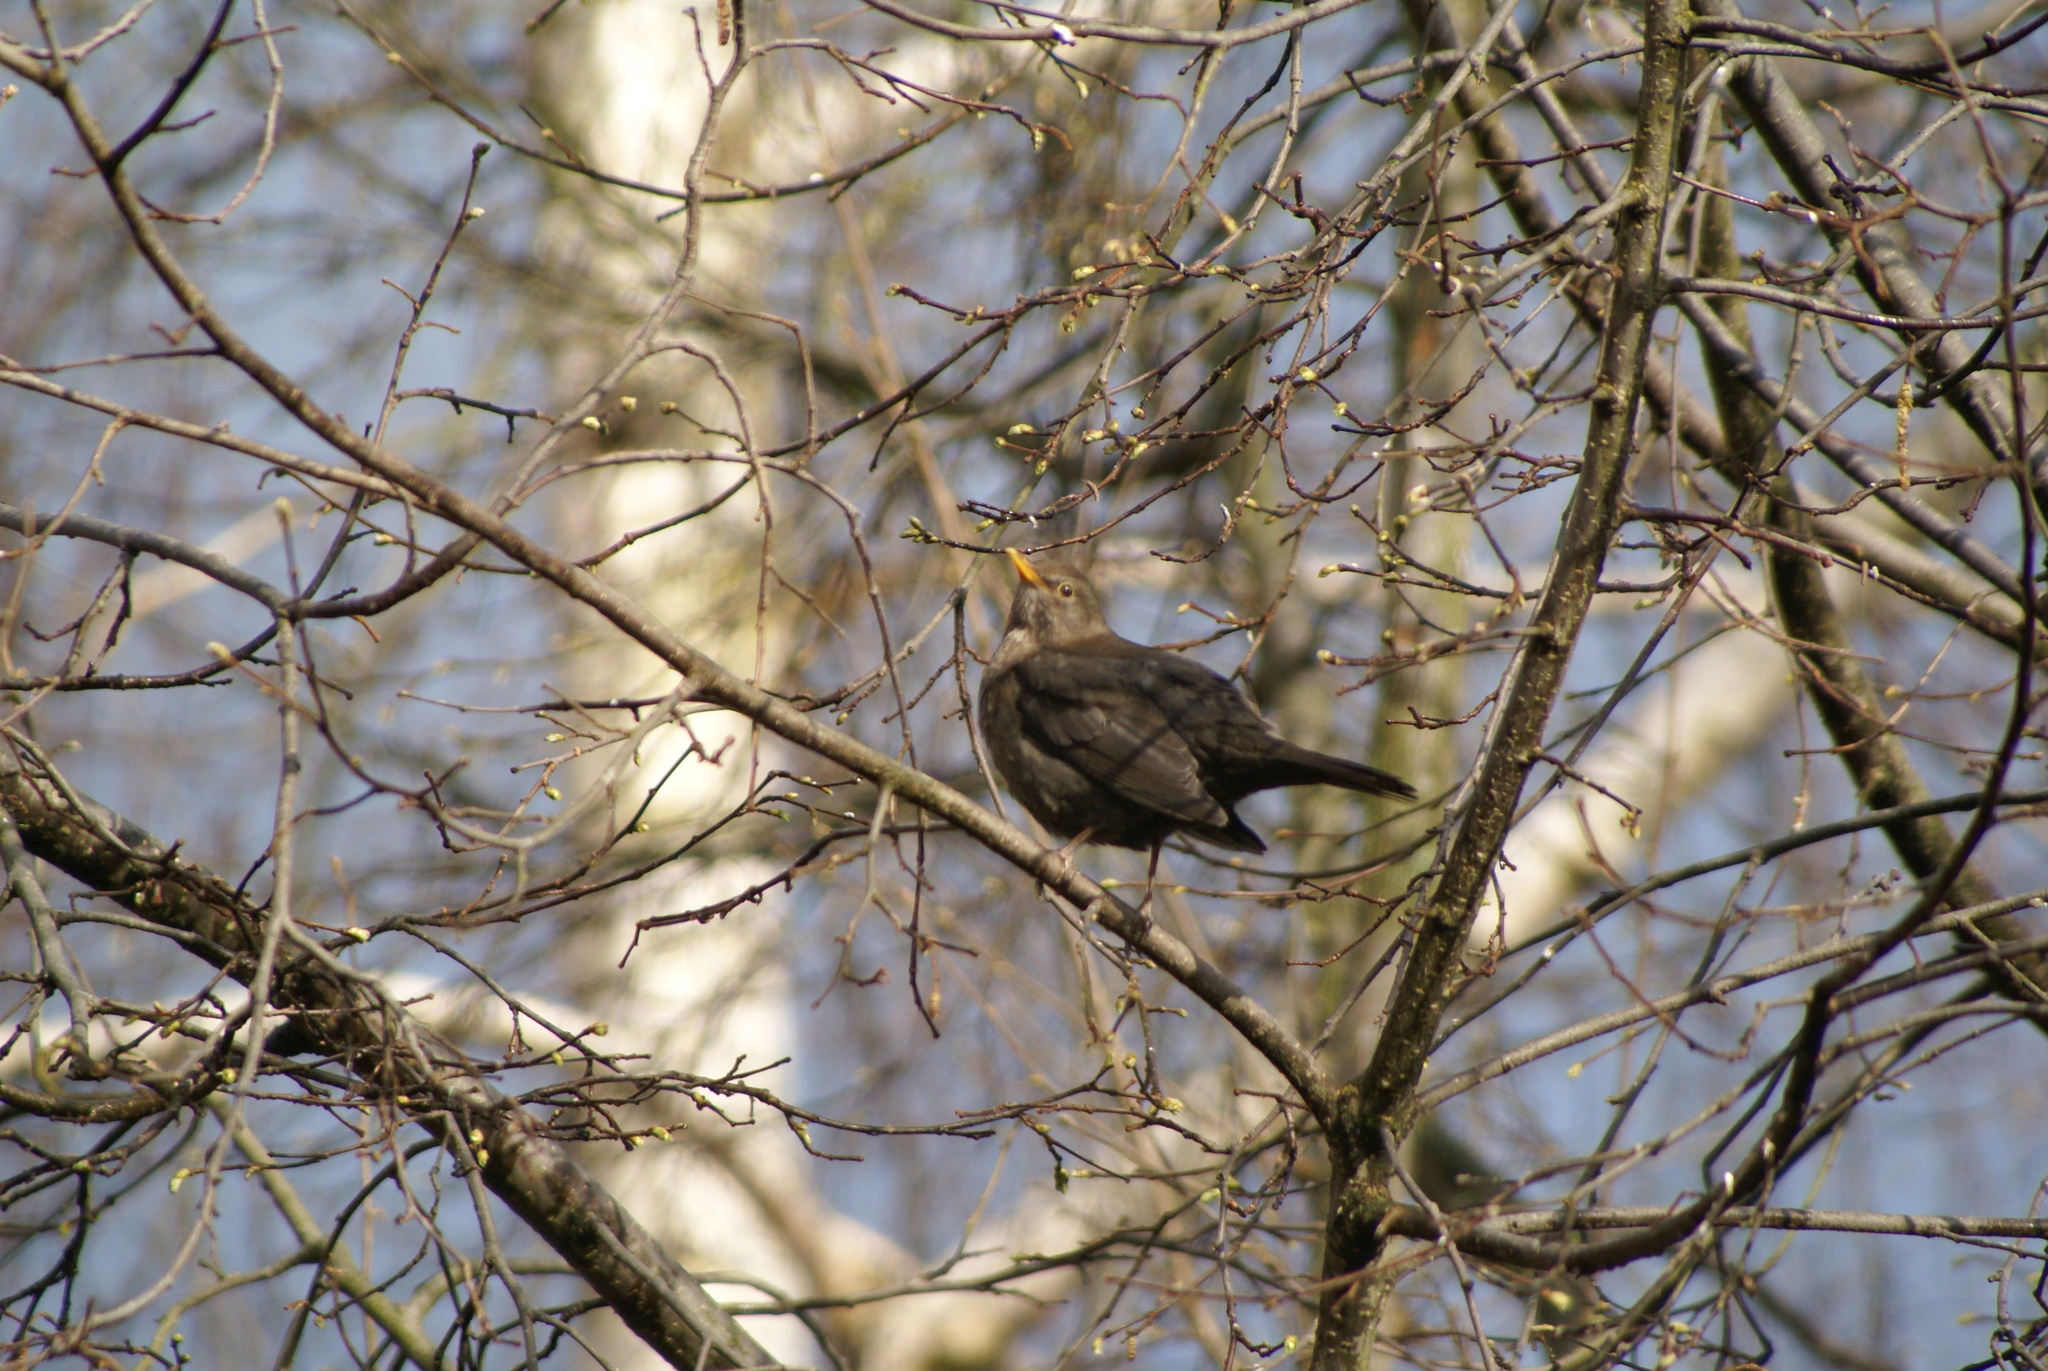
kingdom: Animalia
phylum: Chordata
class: Aves
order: Passeriformes
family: Turdidae
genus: Turdus
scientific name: Turdus merula
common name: Common blackbird
